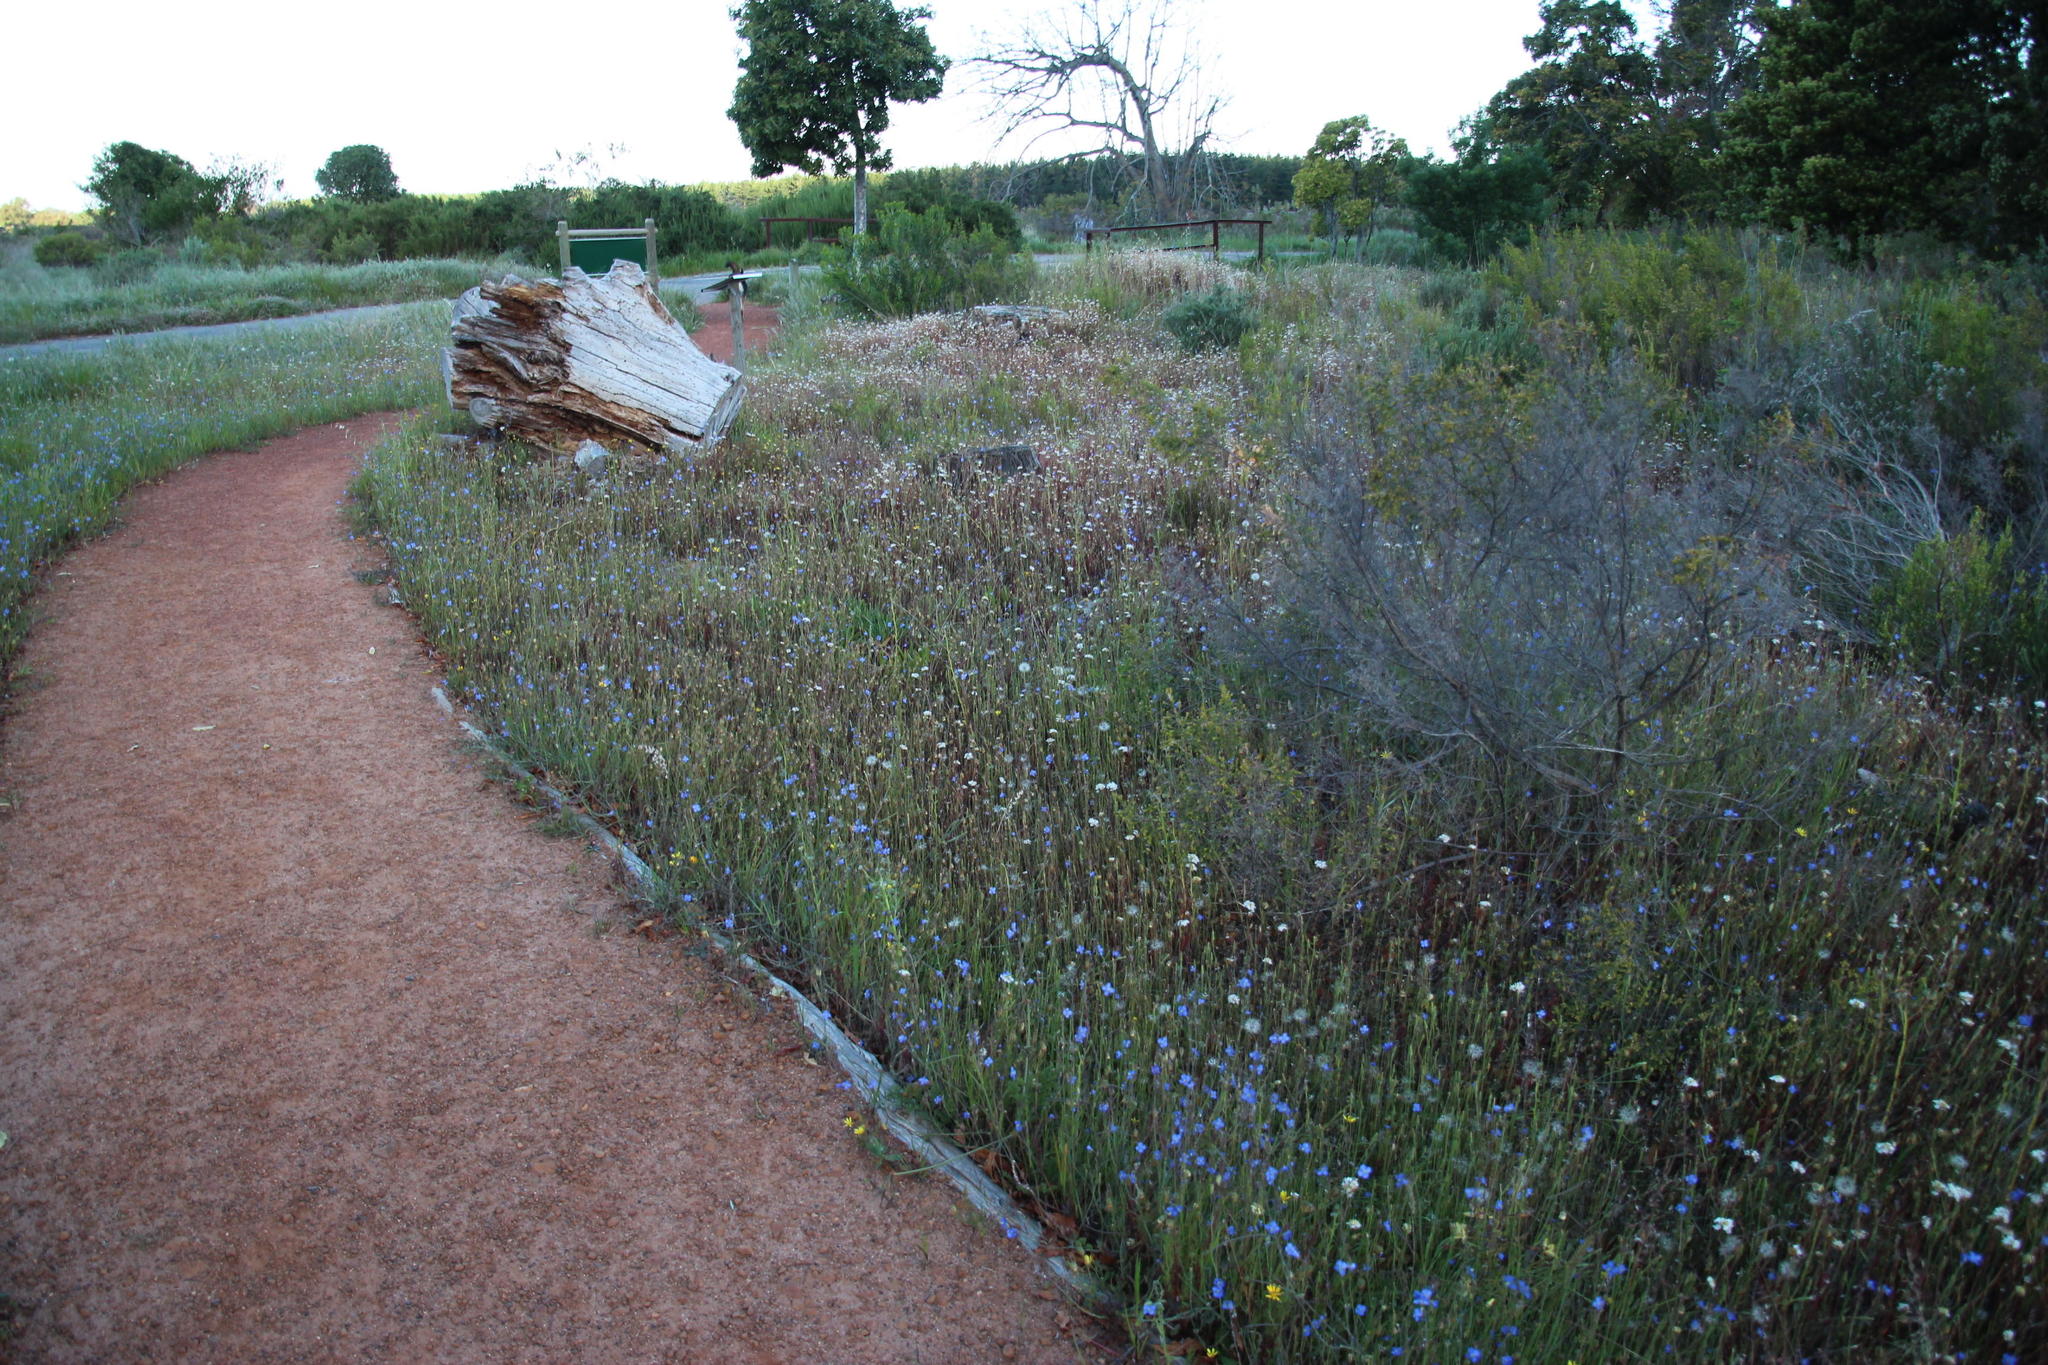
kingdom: Plantae
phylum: Tracheophyta
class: Magnoliopsida
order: Brassicales
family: Brassicaceae
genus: Heliophila
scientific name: Heliophila africana
